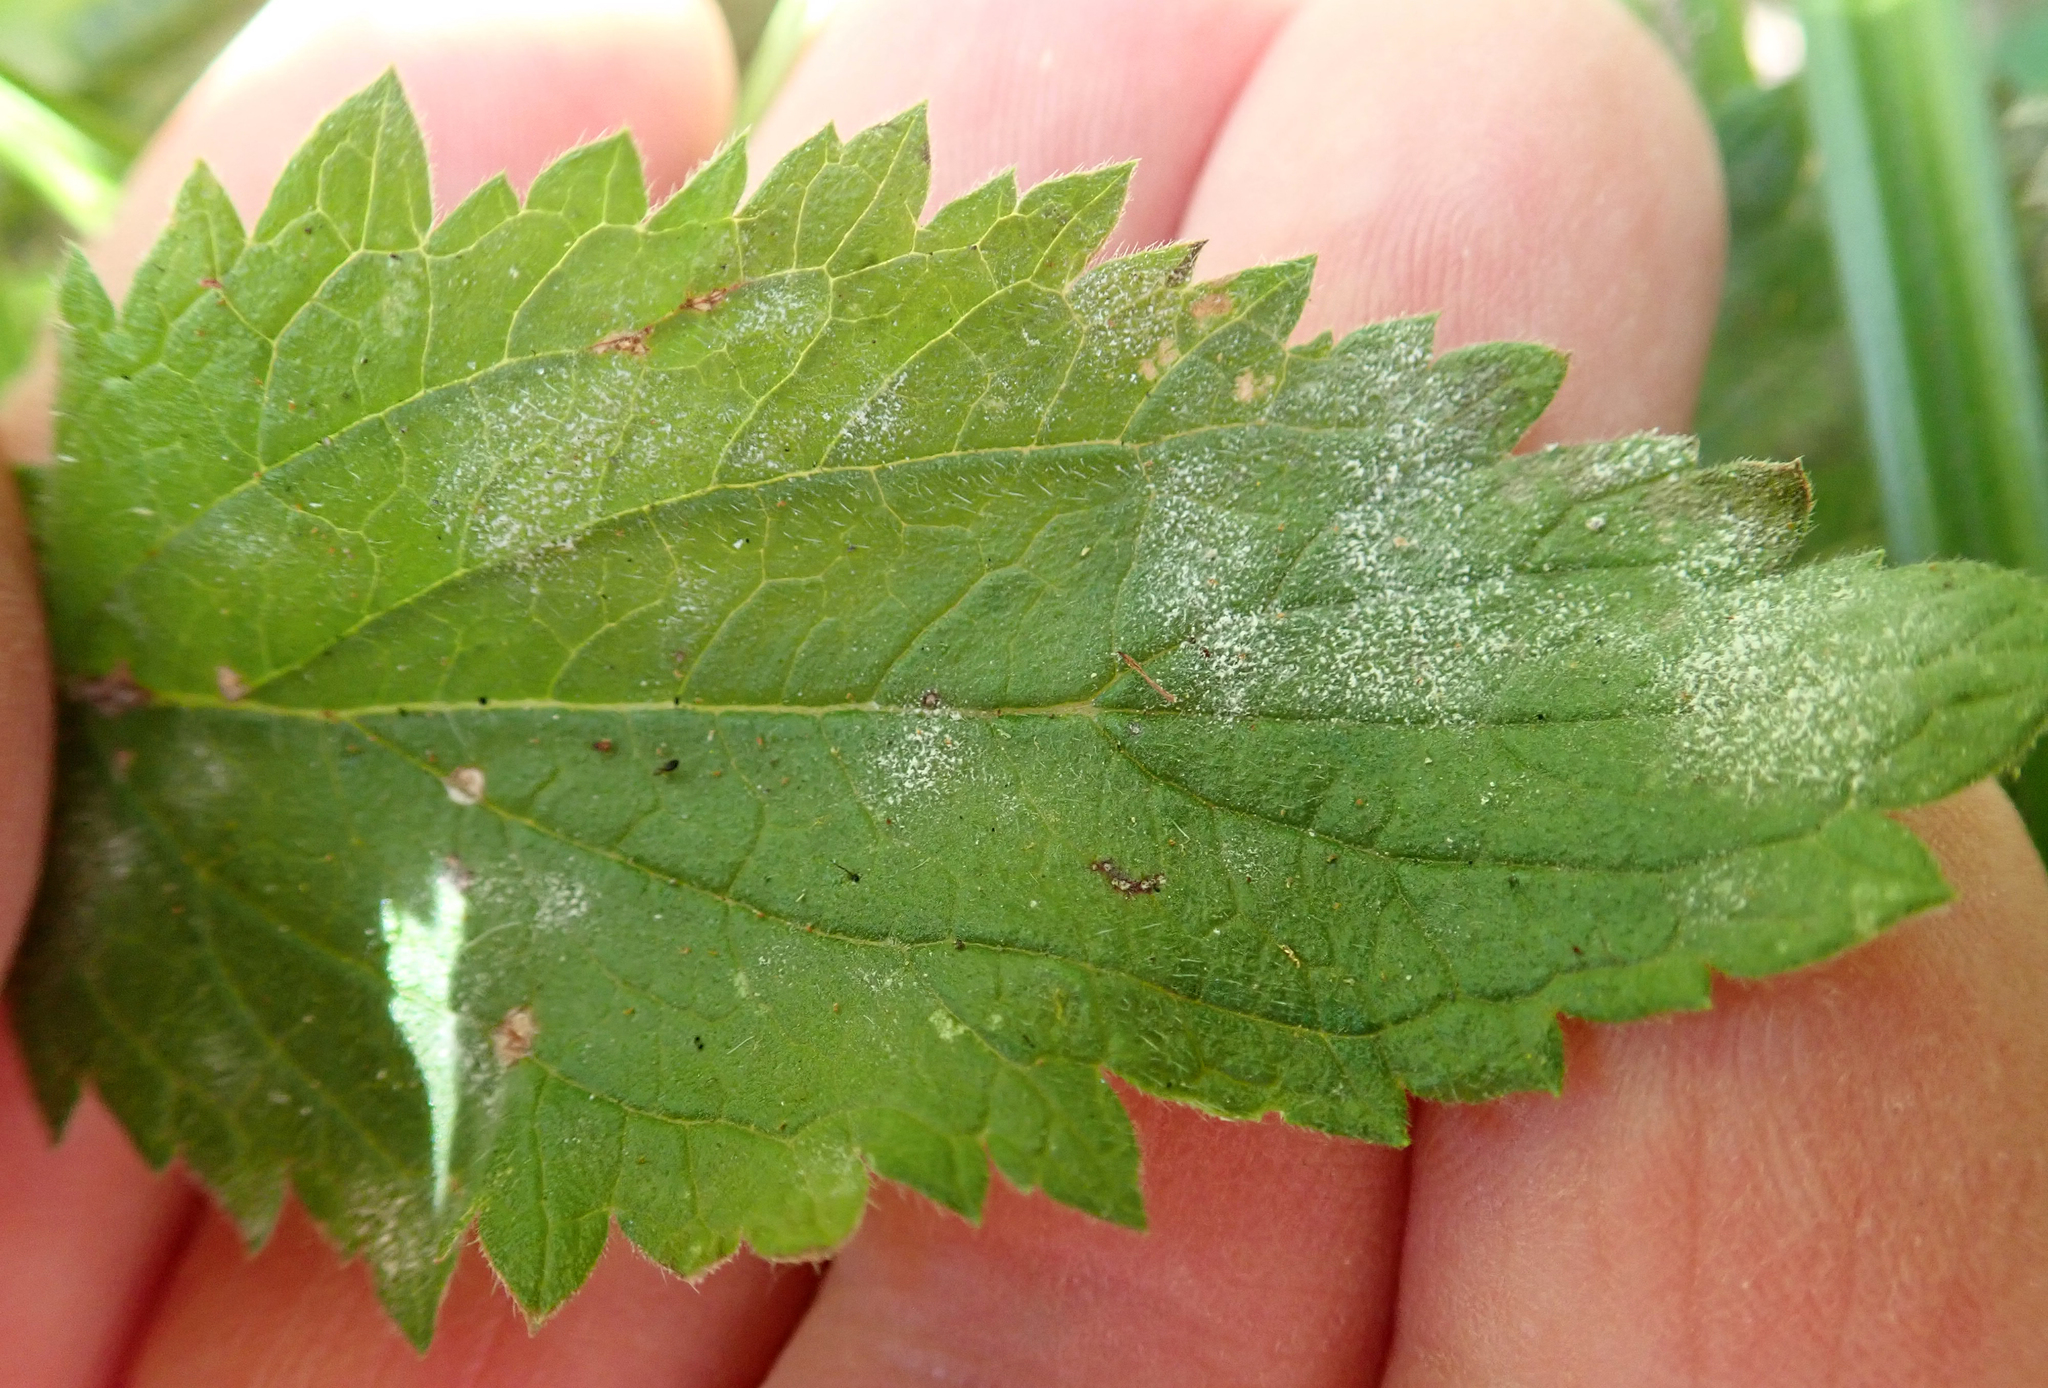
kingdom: Fungi
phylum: Ascomycota
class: Leotiomycetes
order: Helotiales
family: Erysiphaceae
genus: Podosphaera
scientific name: Podosphaera fusca
